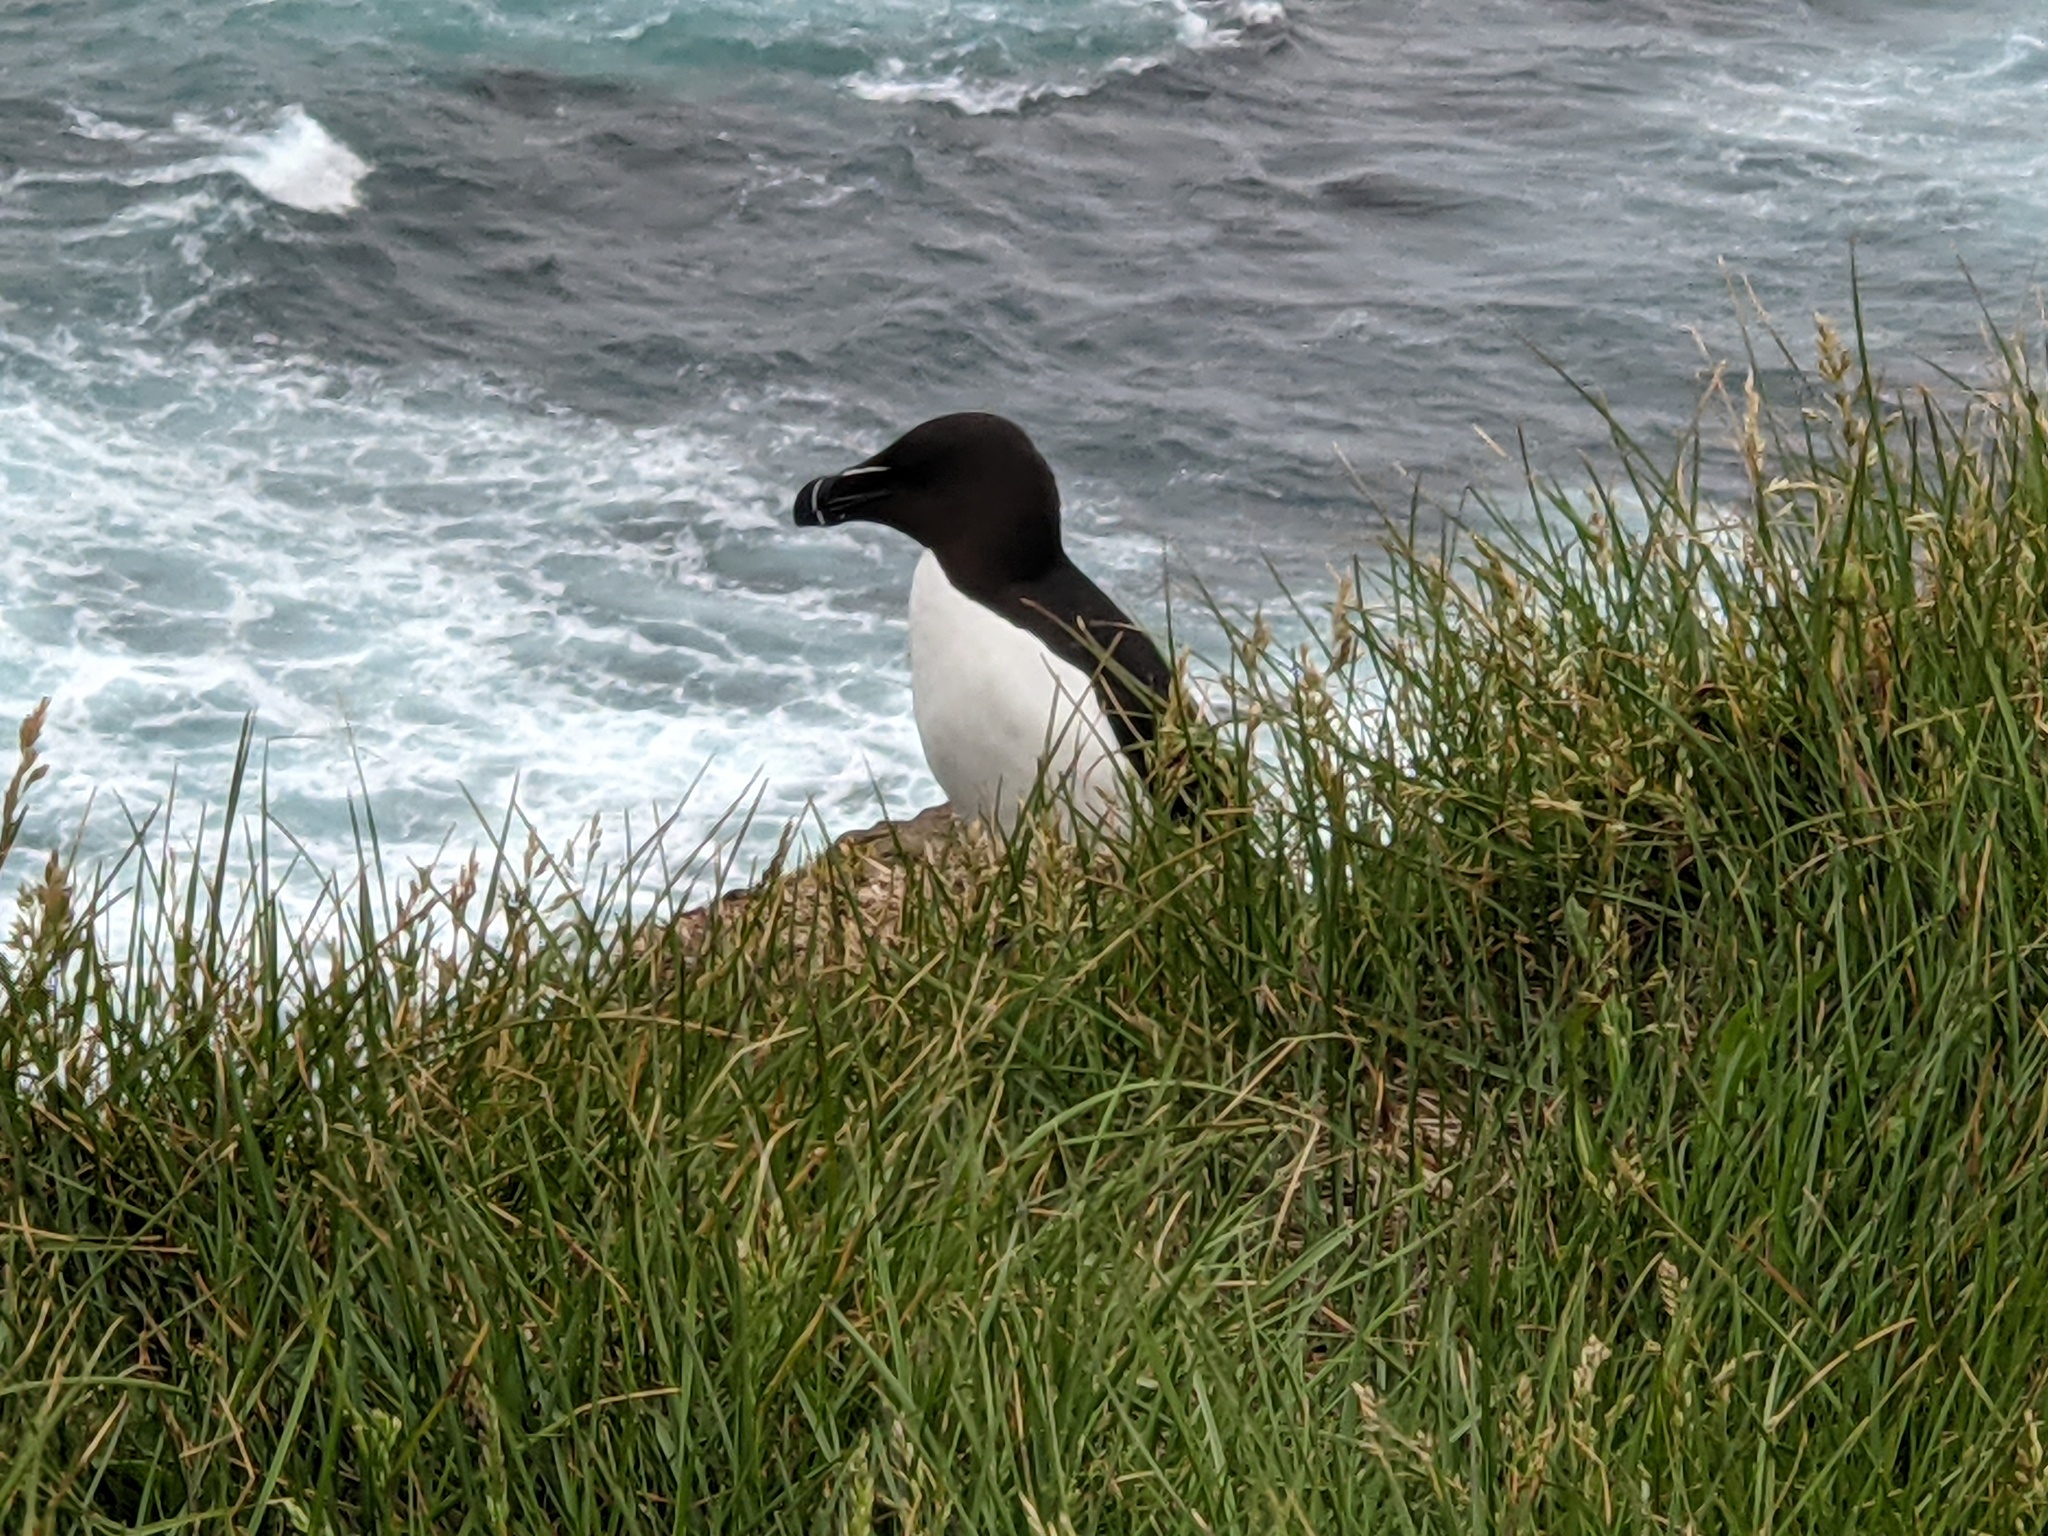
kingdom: Animalia
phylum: Chordata
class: Aves
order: Charadriiformes
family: Alcidae
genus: Alca
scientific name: Alca torda
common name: Razorbill
